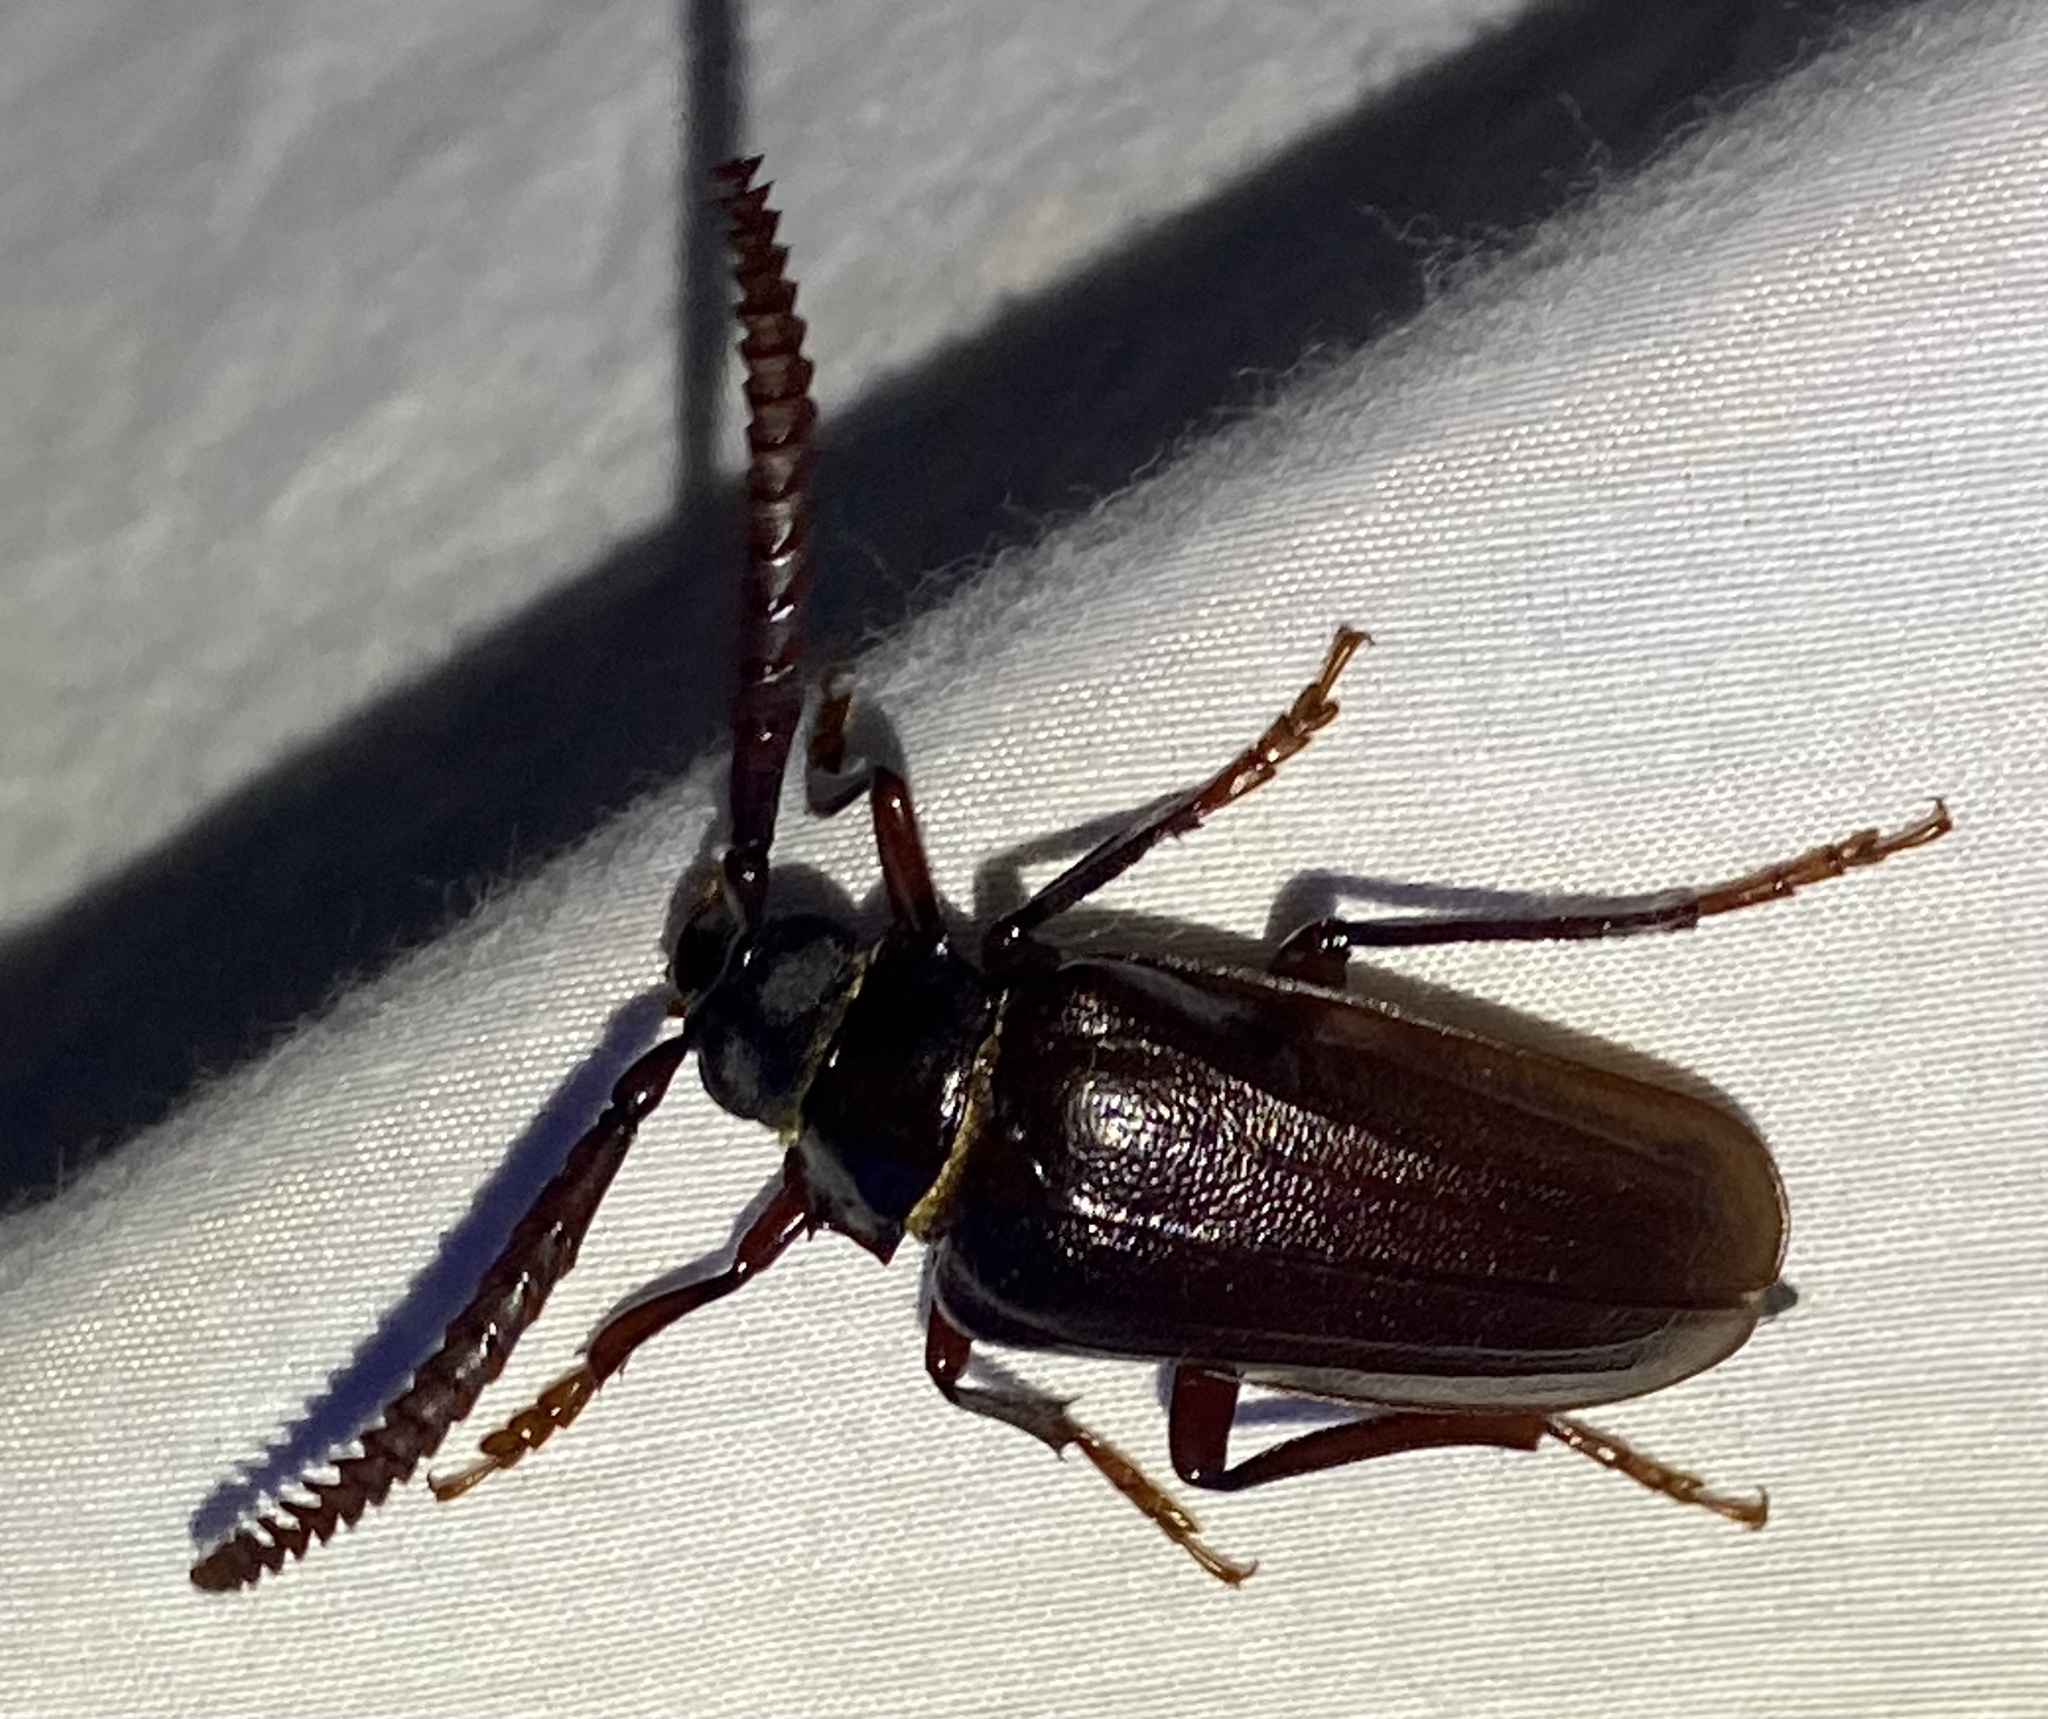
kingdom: Animalia
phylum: Arthropoda
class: Insecta
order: Coleoptera
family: Cerambycidae
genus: Prionus
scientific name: Prionus imbricornis
